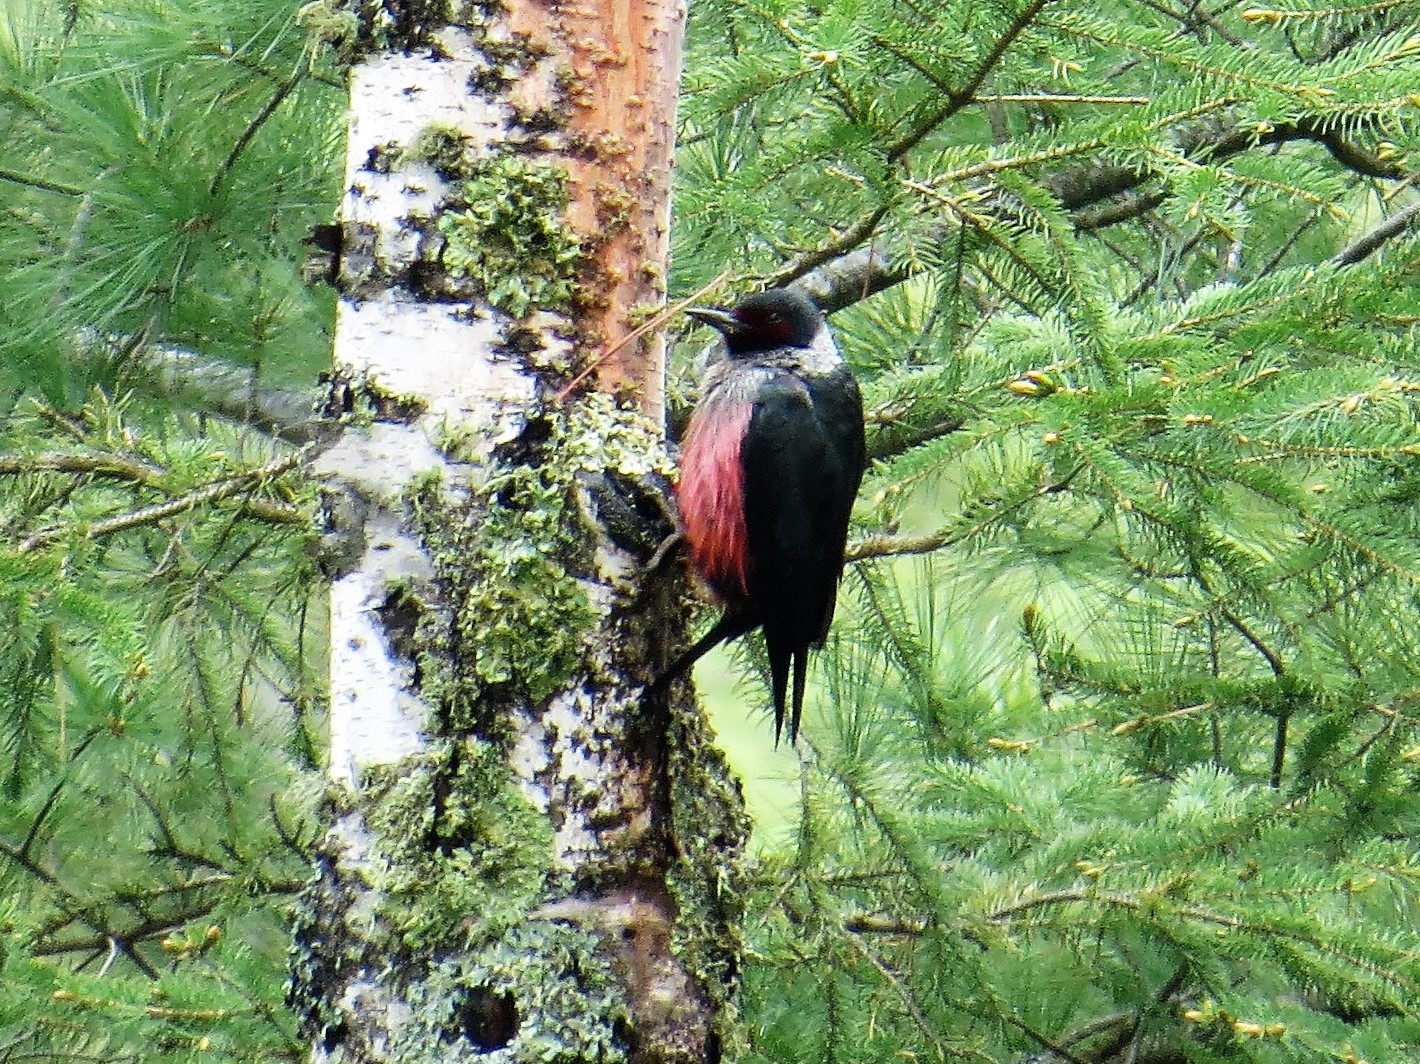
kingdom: Animalia
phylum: Chordata
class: Aves
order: Piciformes
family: Picidae
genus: Melanerpes
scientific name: Melanerpes lewis
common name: Lewis's woodpecker
